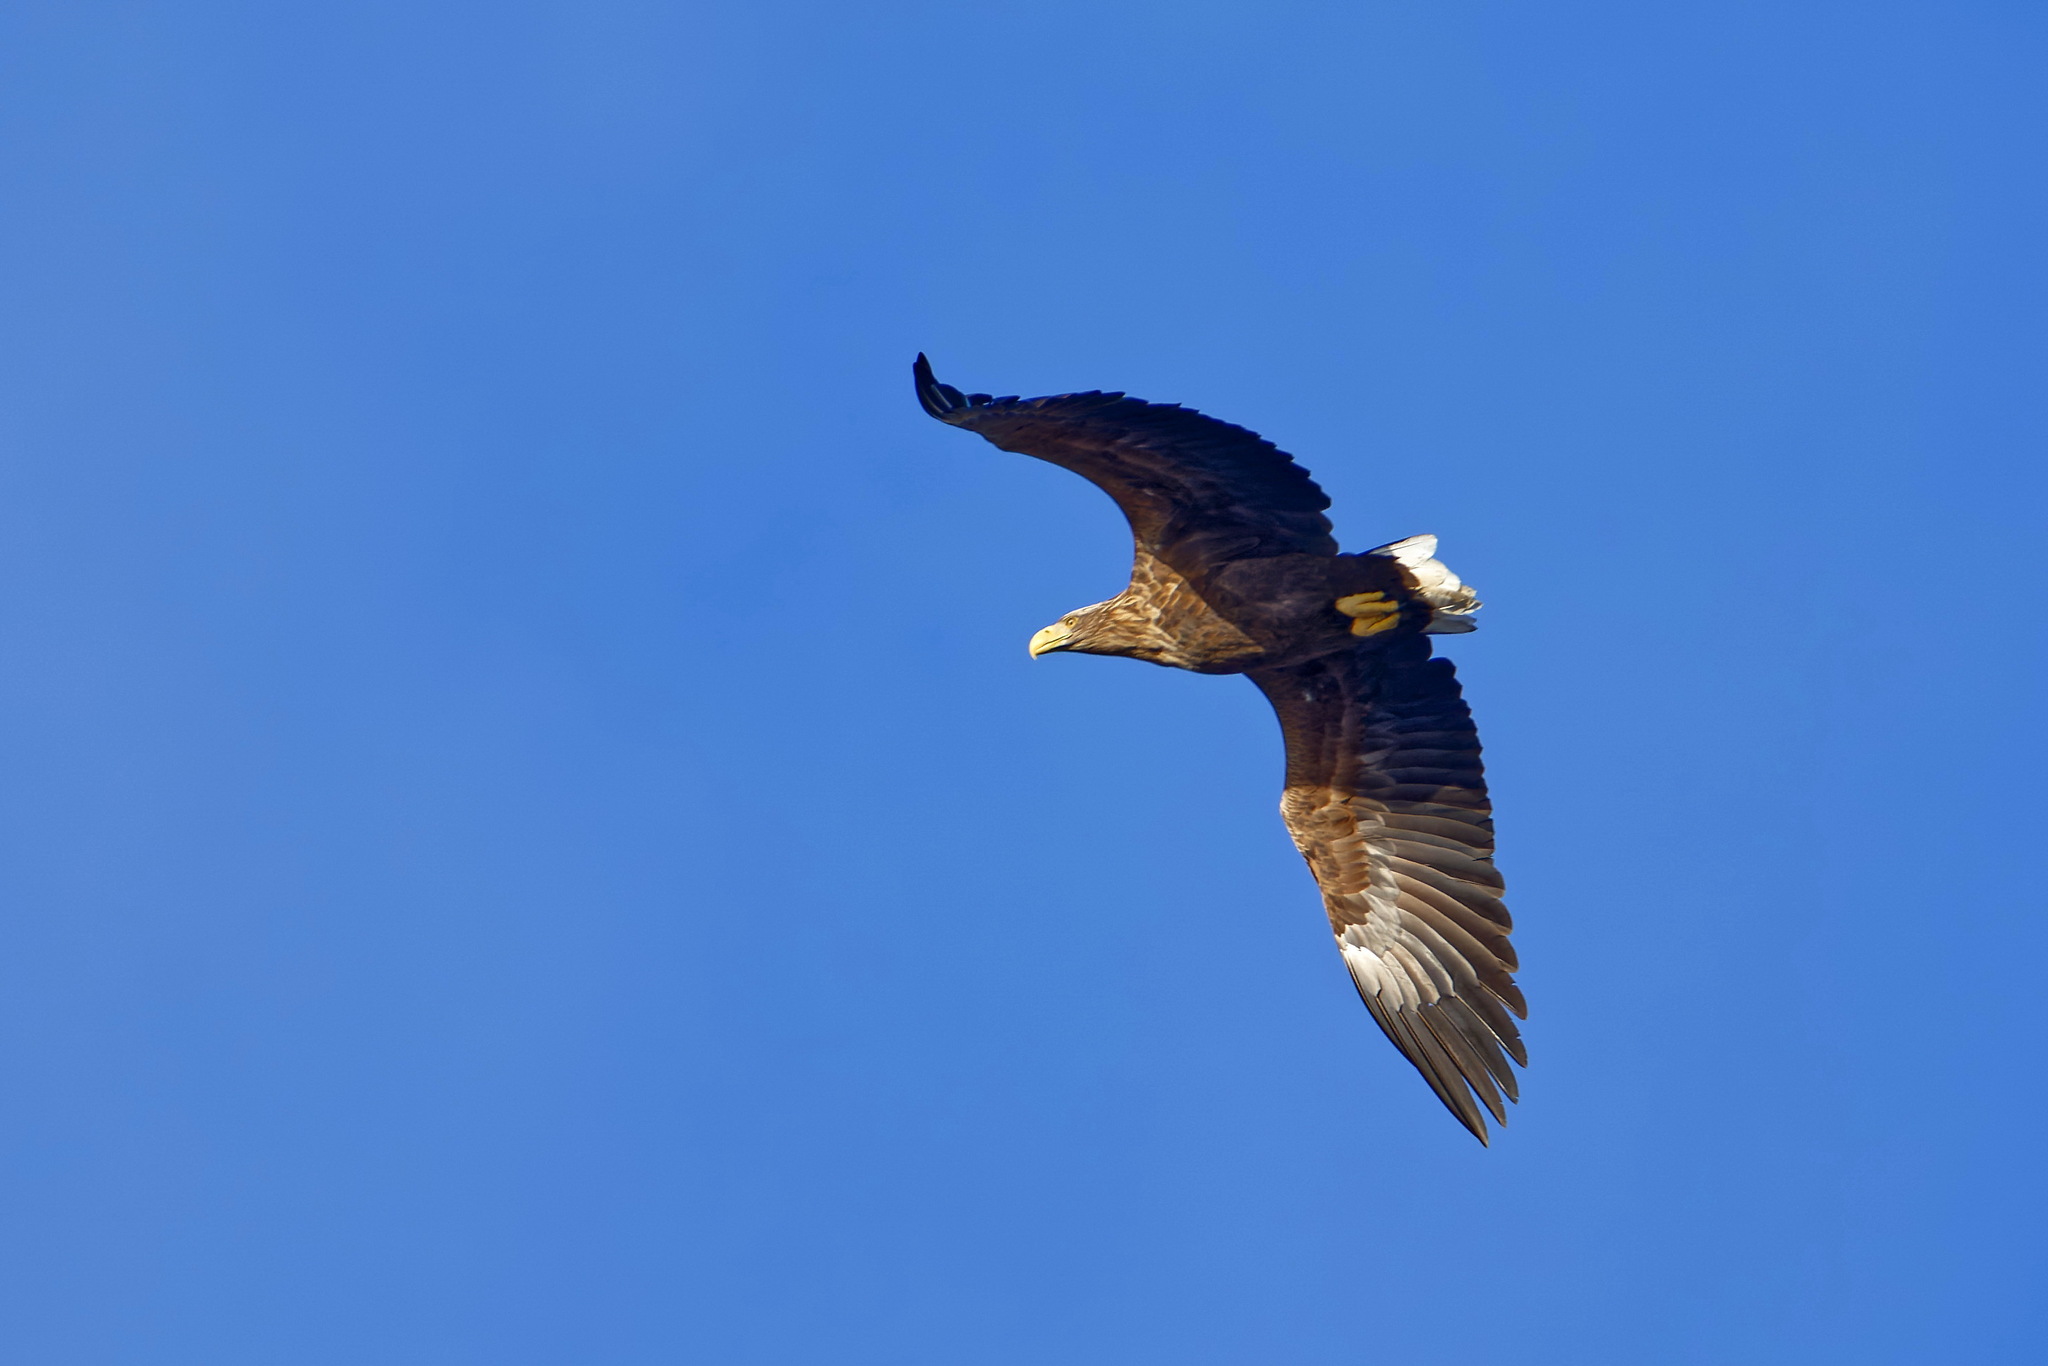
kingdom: Animalia
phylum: Chordata
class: Aves
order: Accipitriformes
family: Accipitridae
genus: Haliaeetus
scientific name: Haliaeetus albicilla
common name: White-tailed eagle
